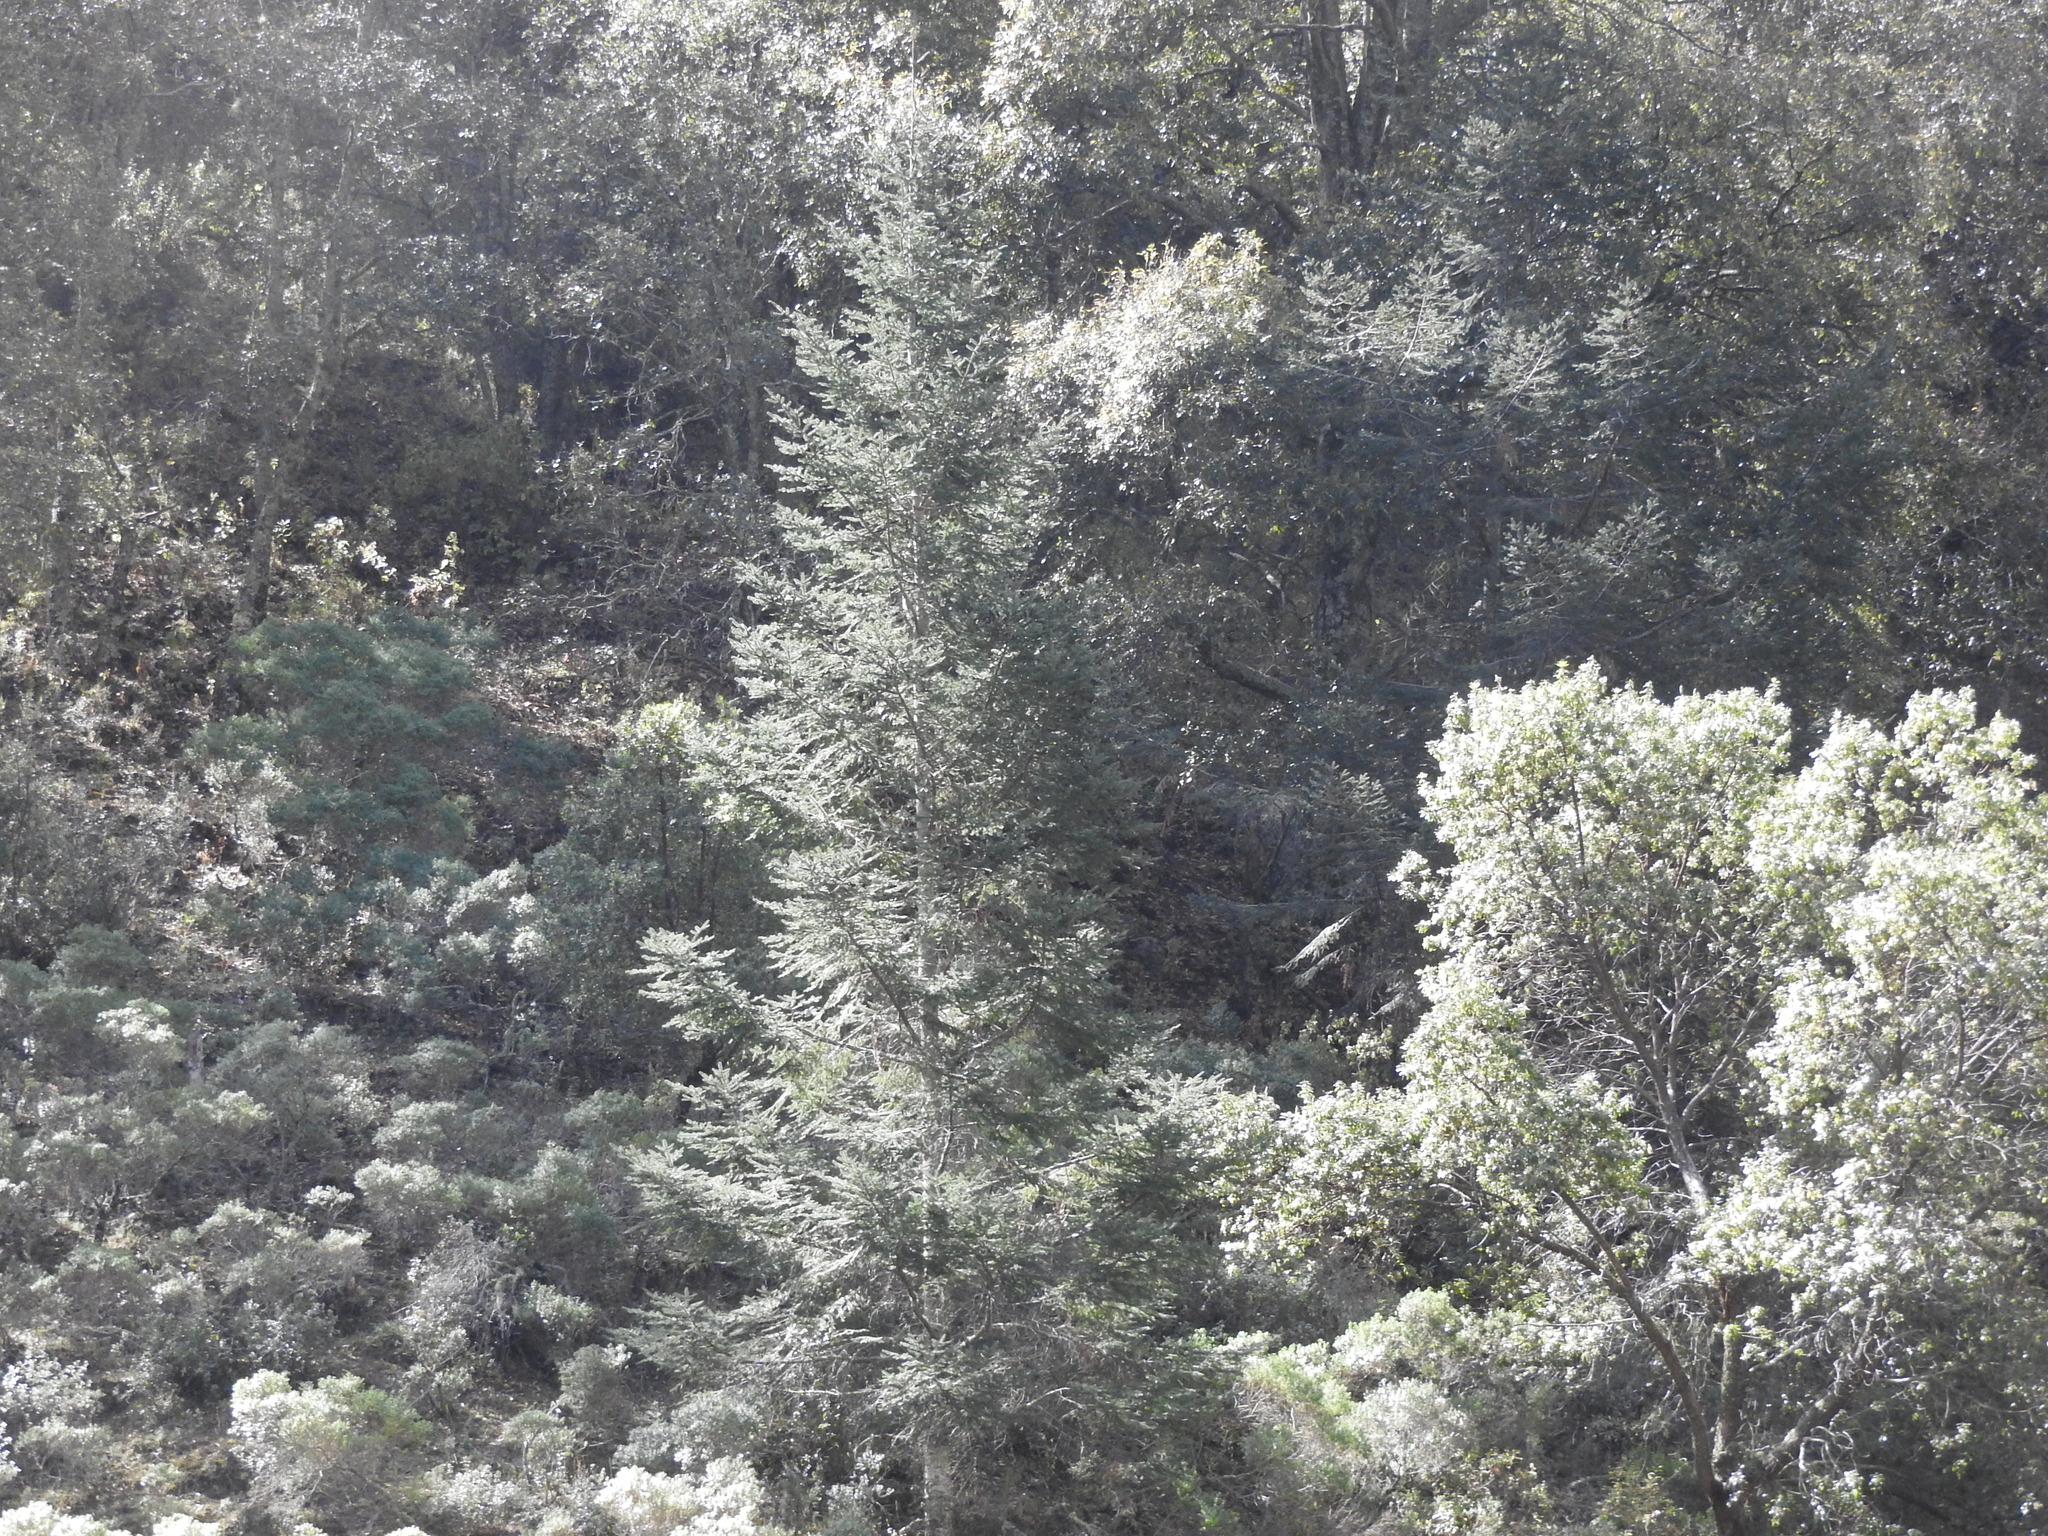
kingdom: Plantae
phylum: Tracheophyta
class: Pinopsida
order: Pinales
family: Pinaceae
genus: Abies
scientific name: Abies religiosa
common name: Sacred fir
